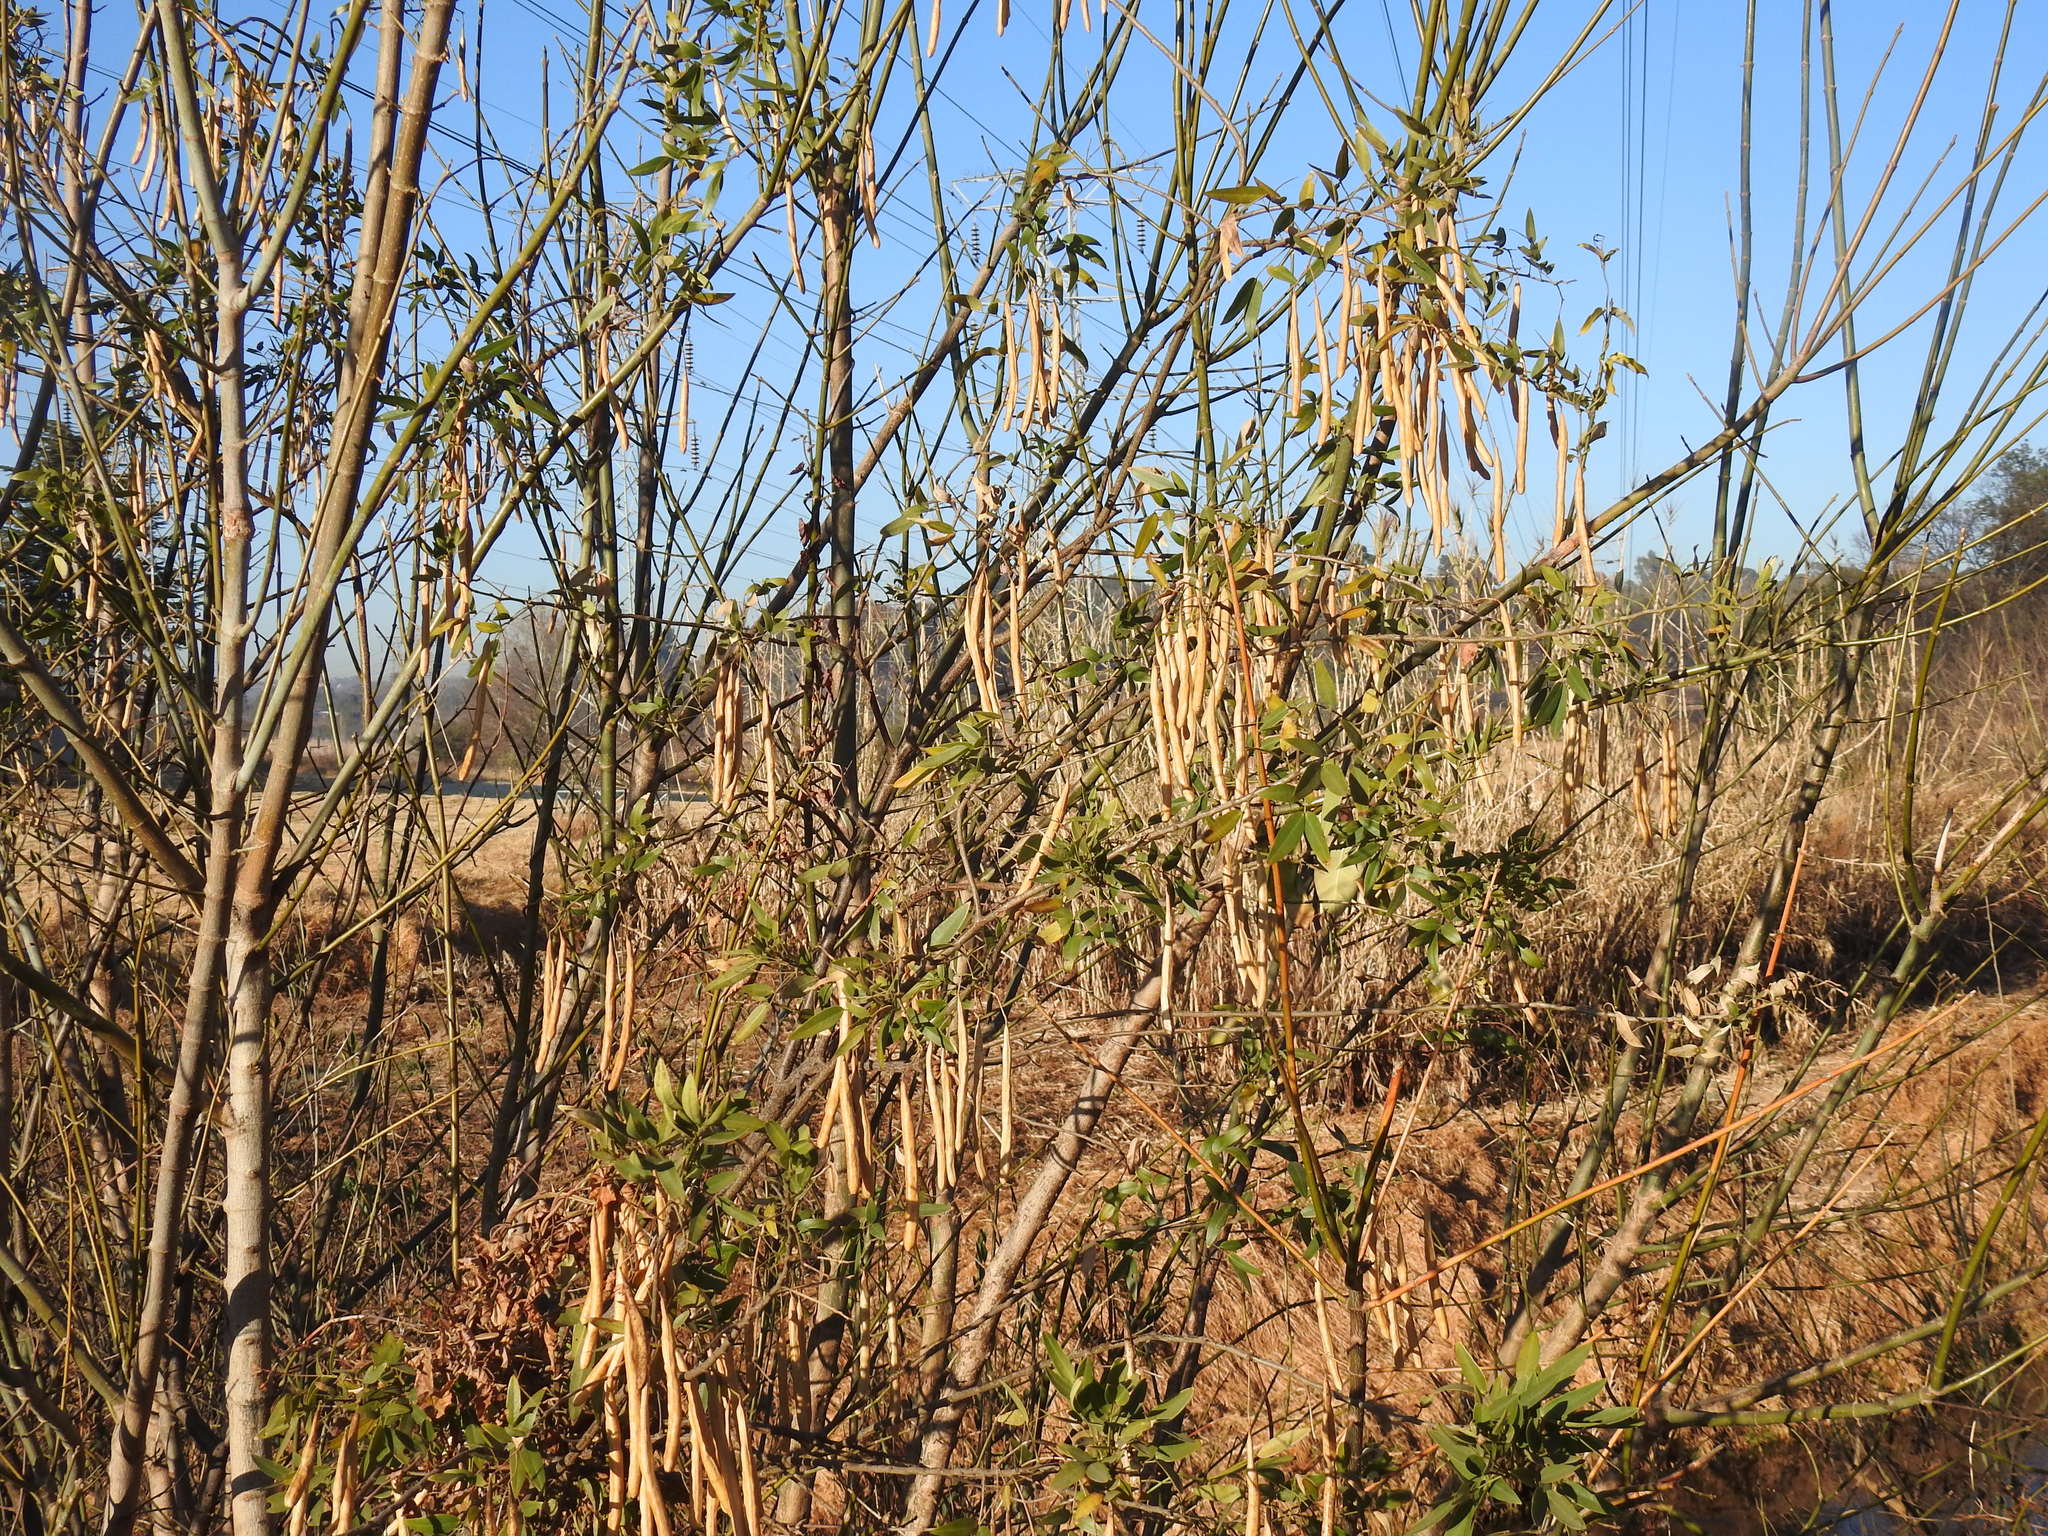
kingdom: Plantae
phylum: Tracheophyta
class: Magnoliopsida
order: Fabales
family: Fabaceae
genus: Senna
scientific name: Senna corymbosa
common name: Argentine senna
